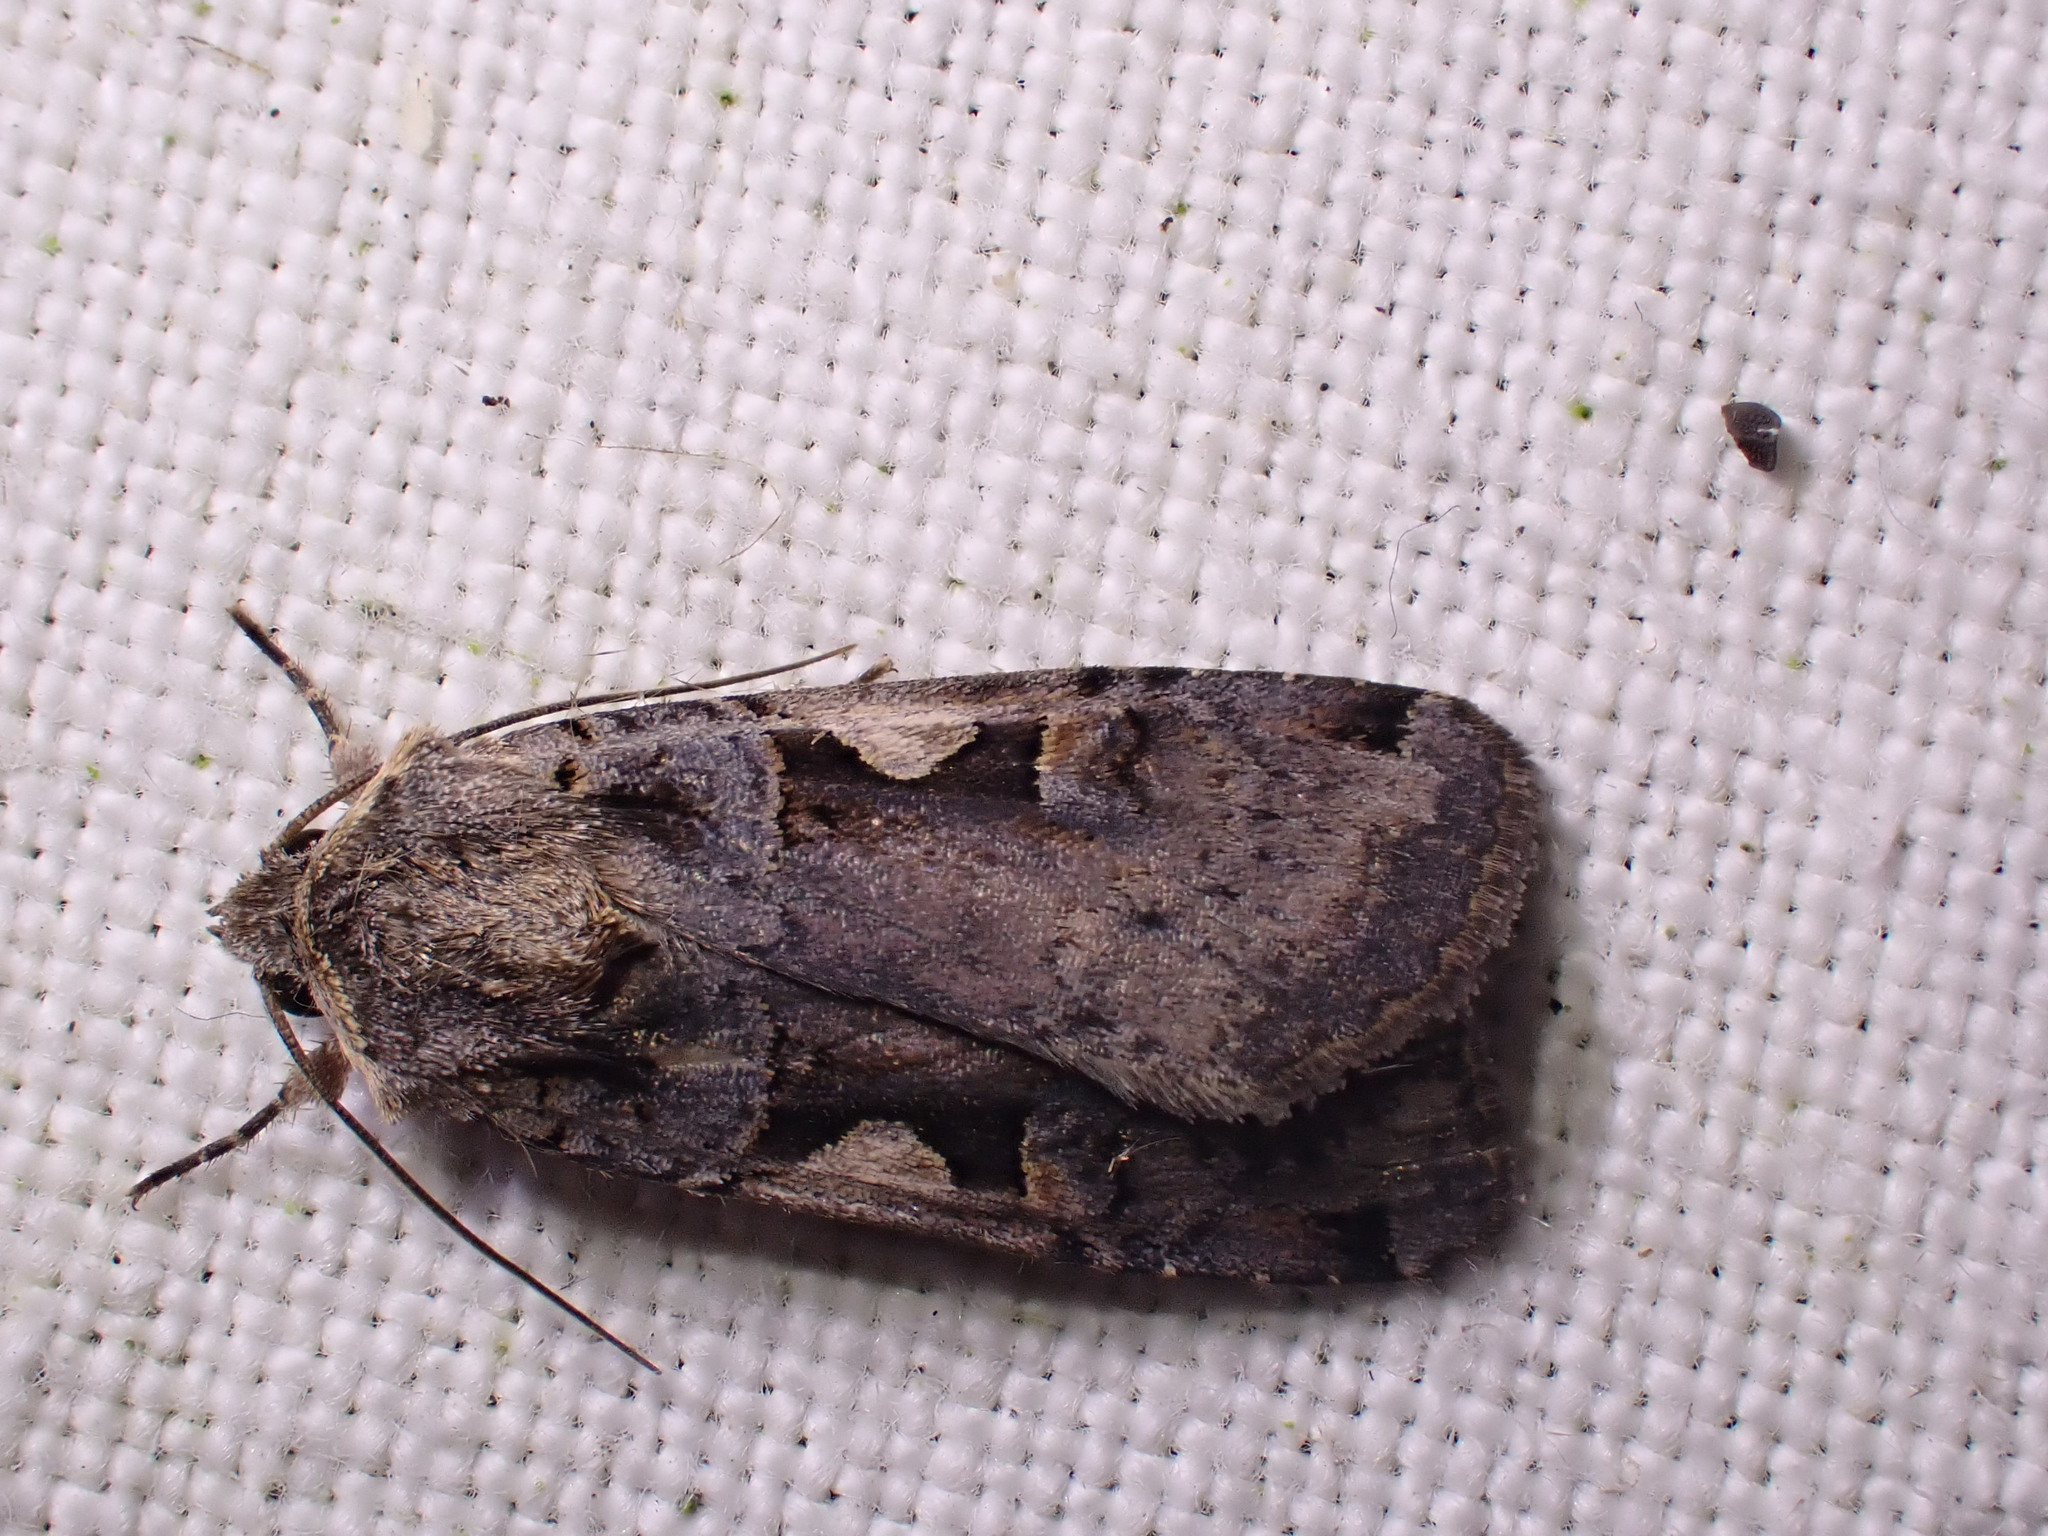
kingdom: Animalia
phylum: Arthropoda
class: Insecta
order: Lepidoptera
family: Noctuidae
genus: Xestia
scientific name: Xestia c-nigrum
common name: Setaceous hebrew character
